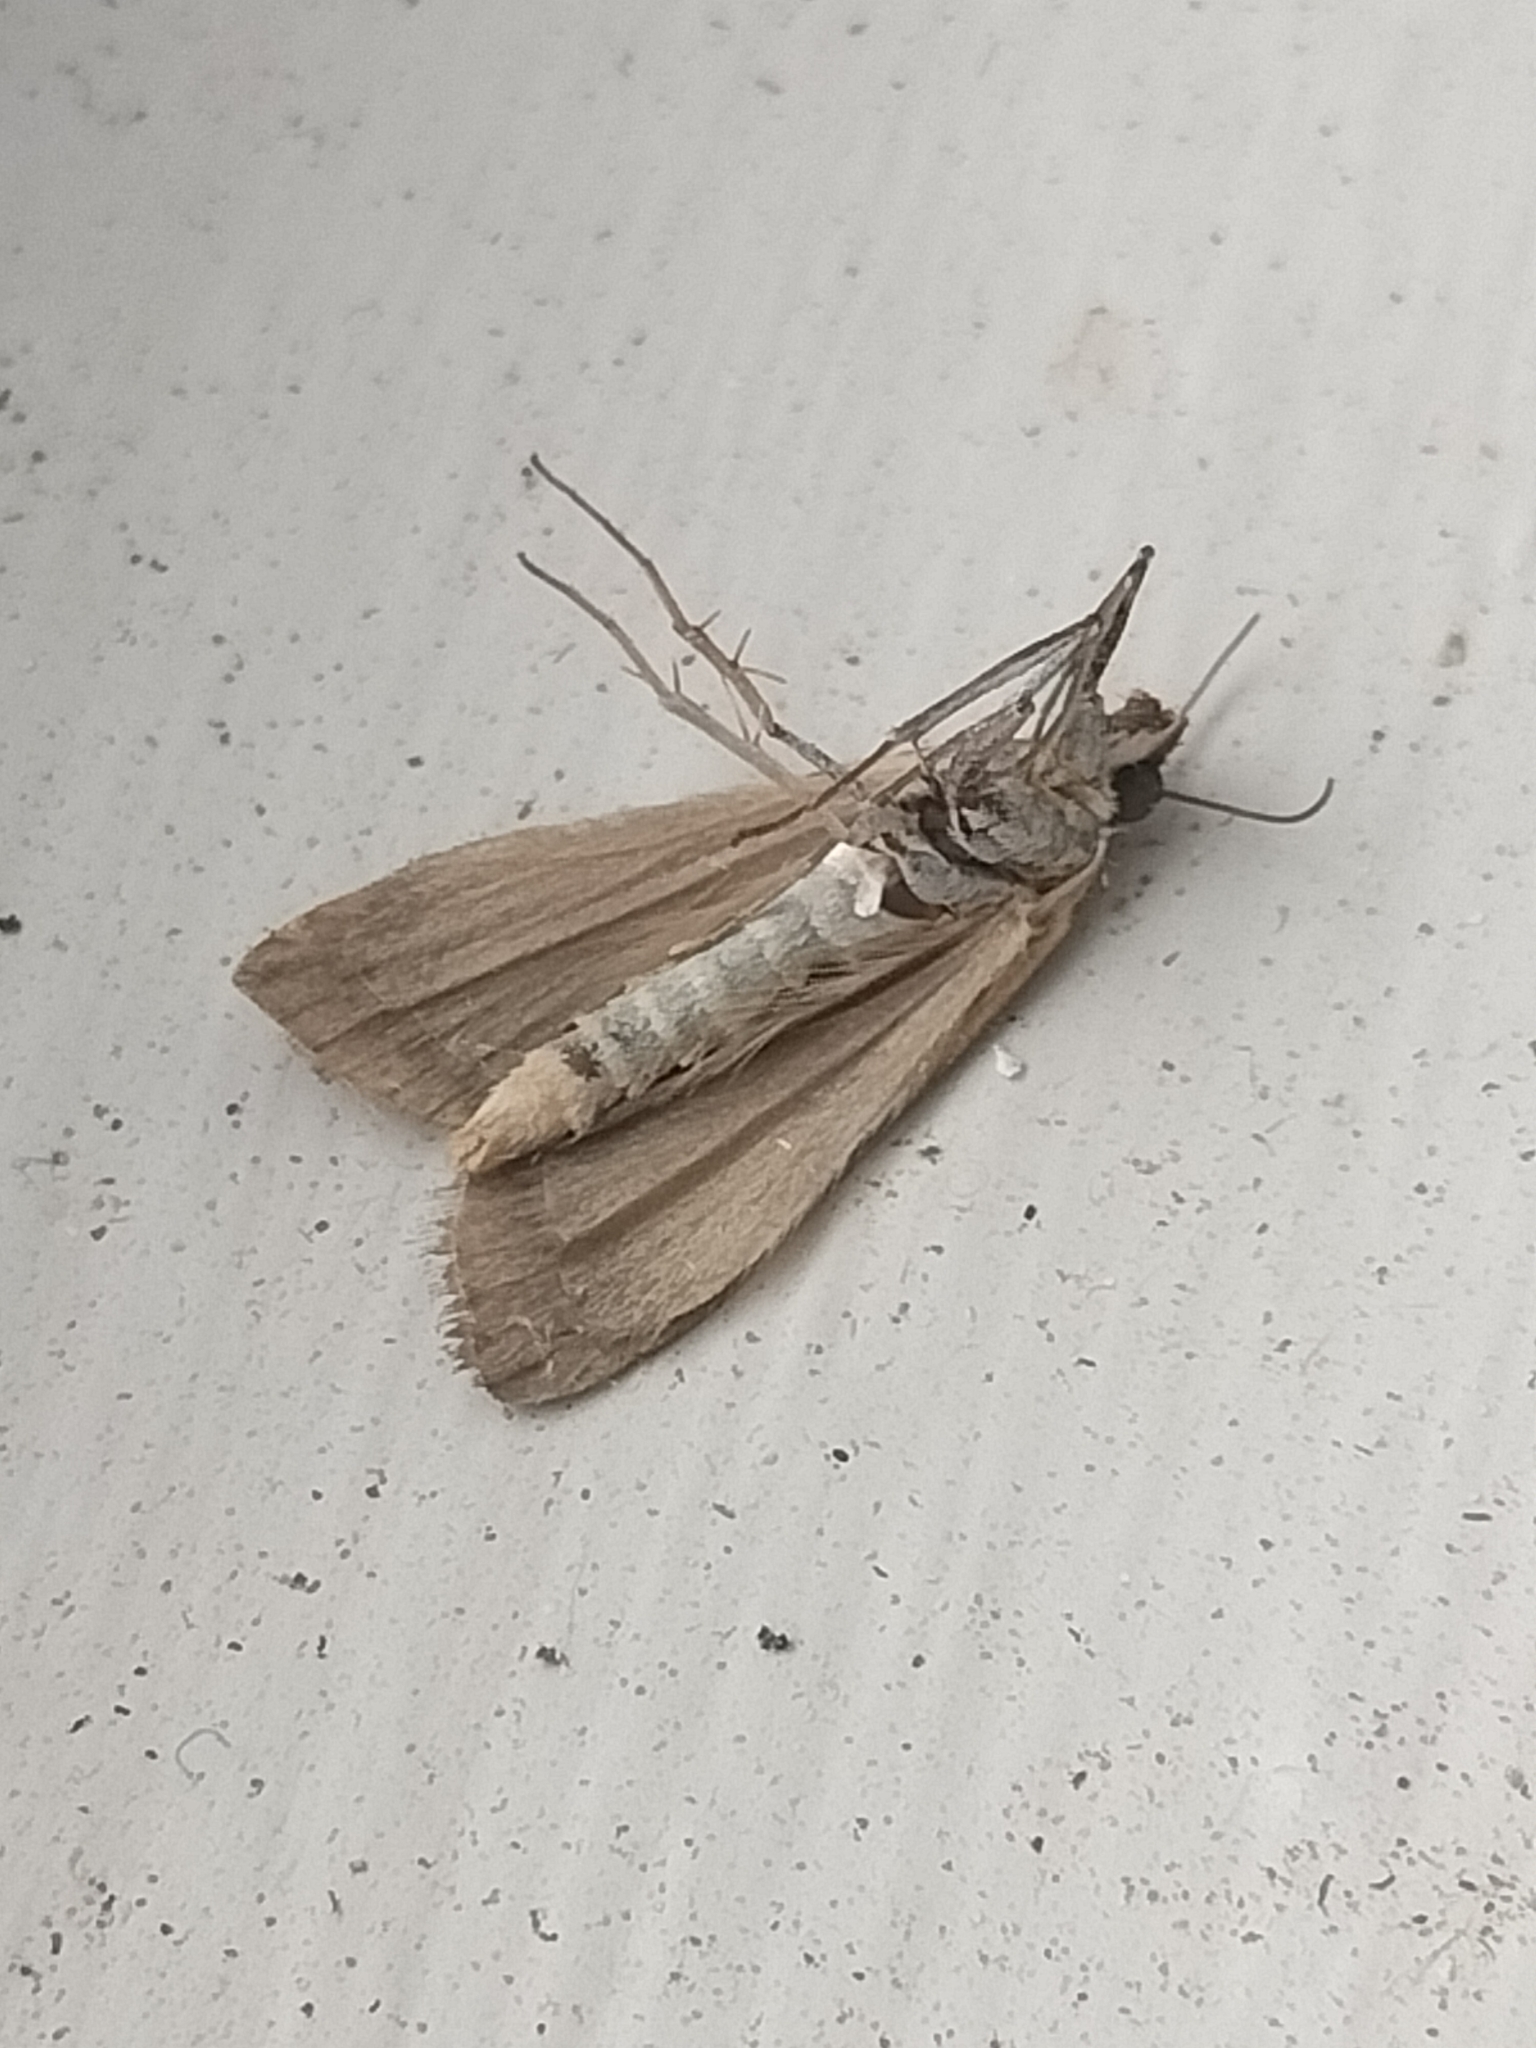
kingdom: Animalia
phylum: Arthropoda
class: Insecta
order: Lepidoptera
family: Crambidae
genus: Achyra
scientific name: Achyra affinitalis
